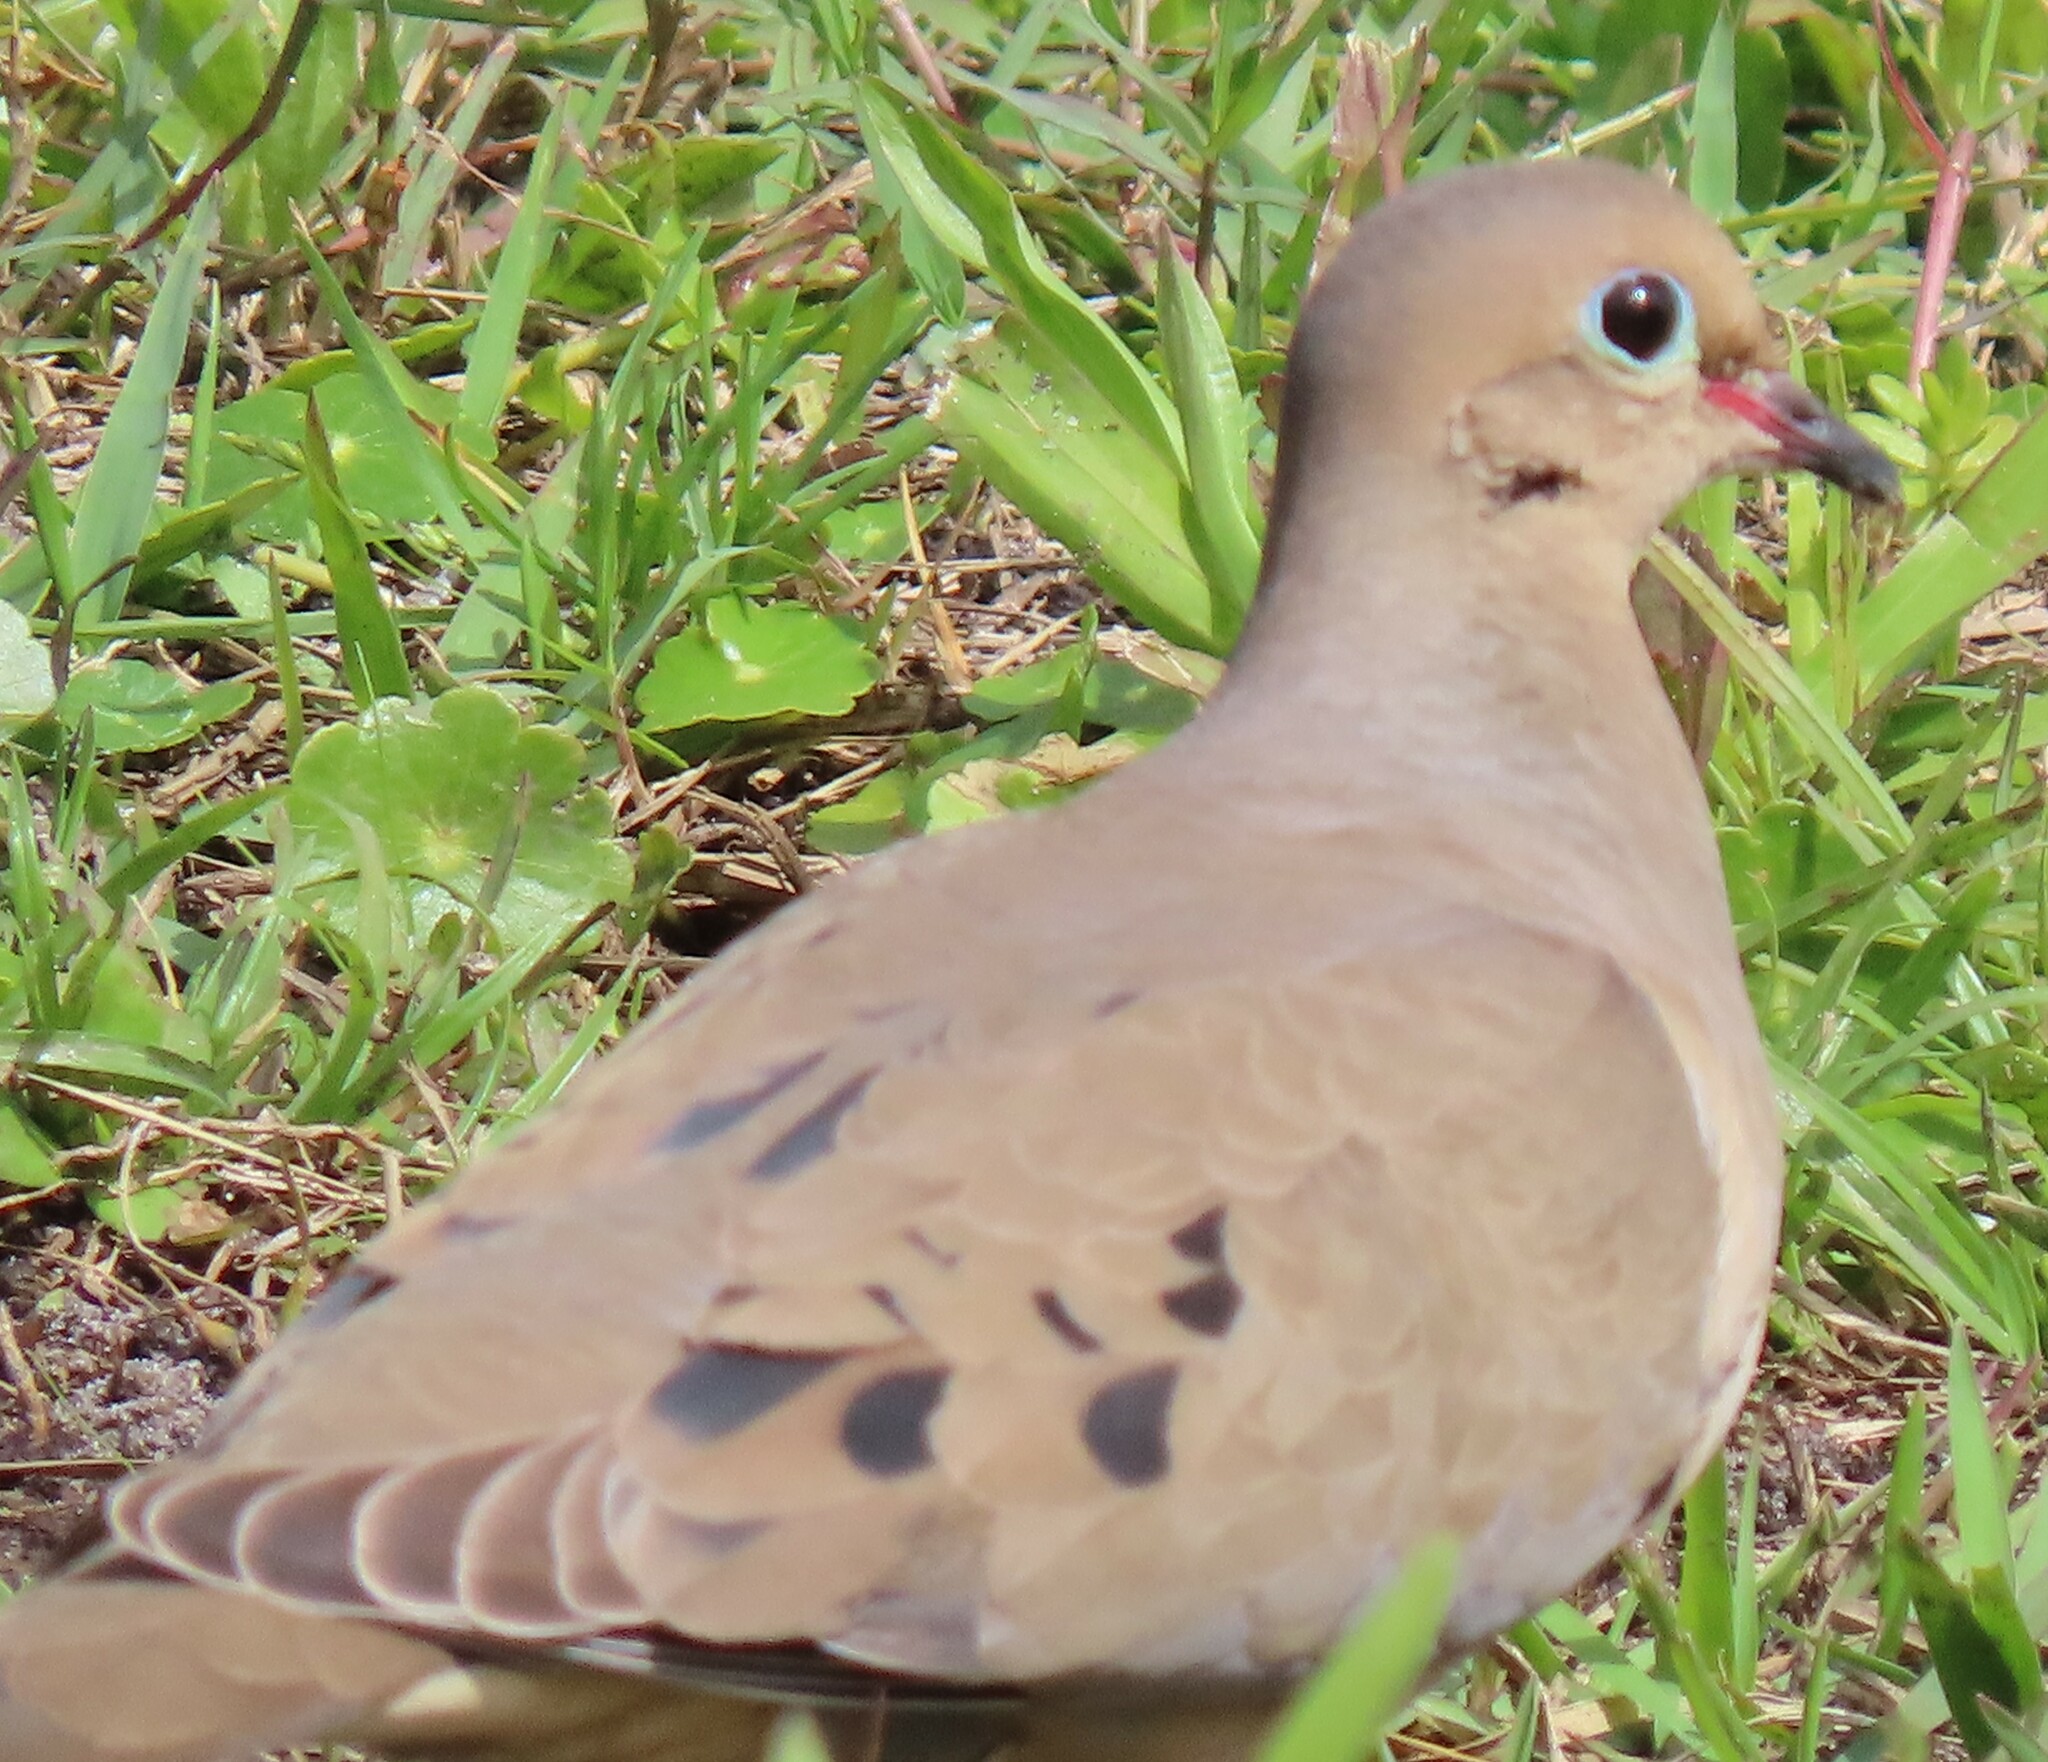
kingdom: Animalia
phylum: Chordata
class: Aves
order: Columbiformes
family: Columbidae
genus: Zenaida
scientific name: Zenaida macroura
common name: Mourning dove
